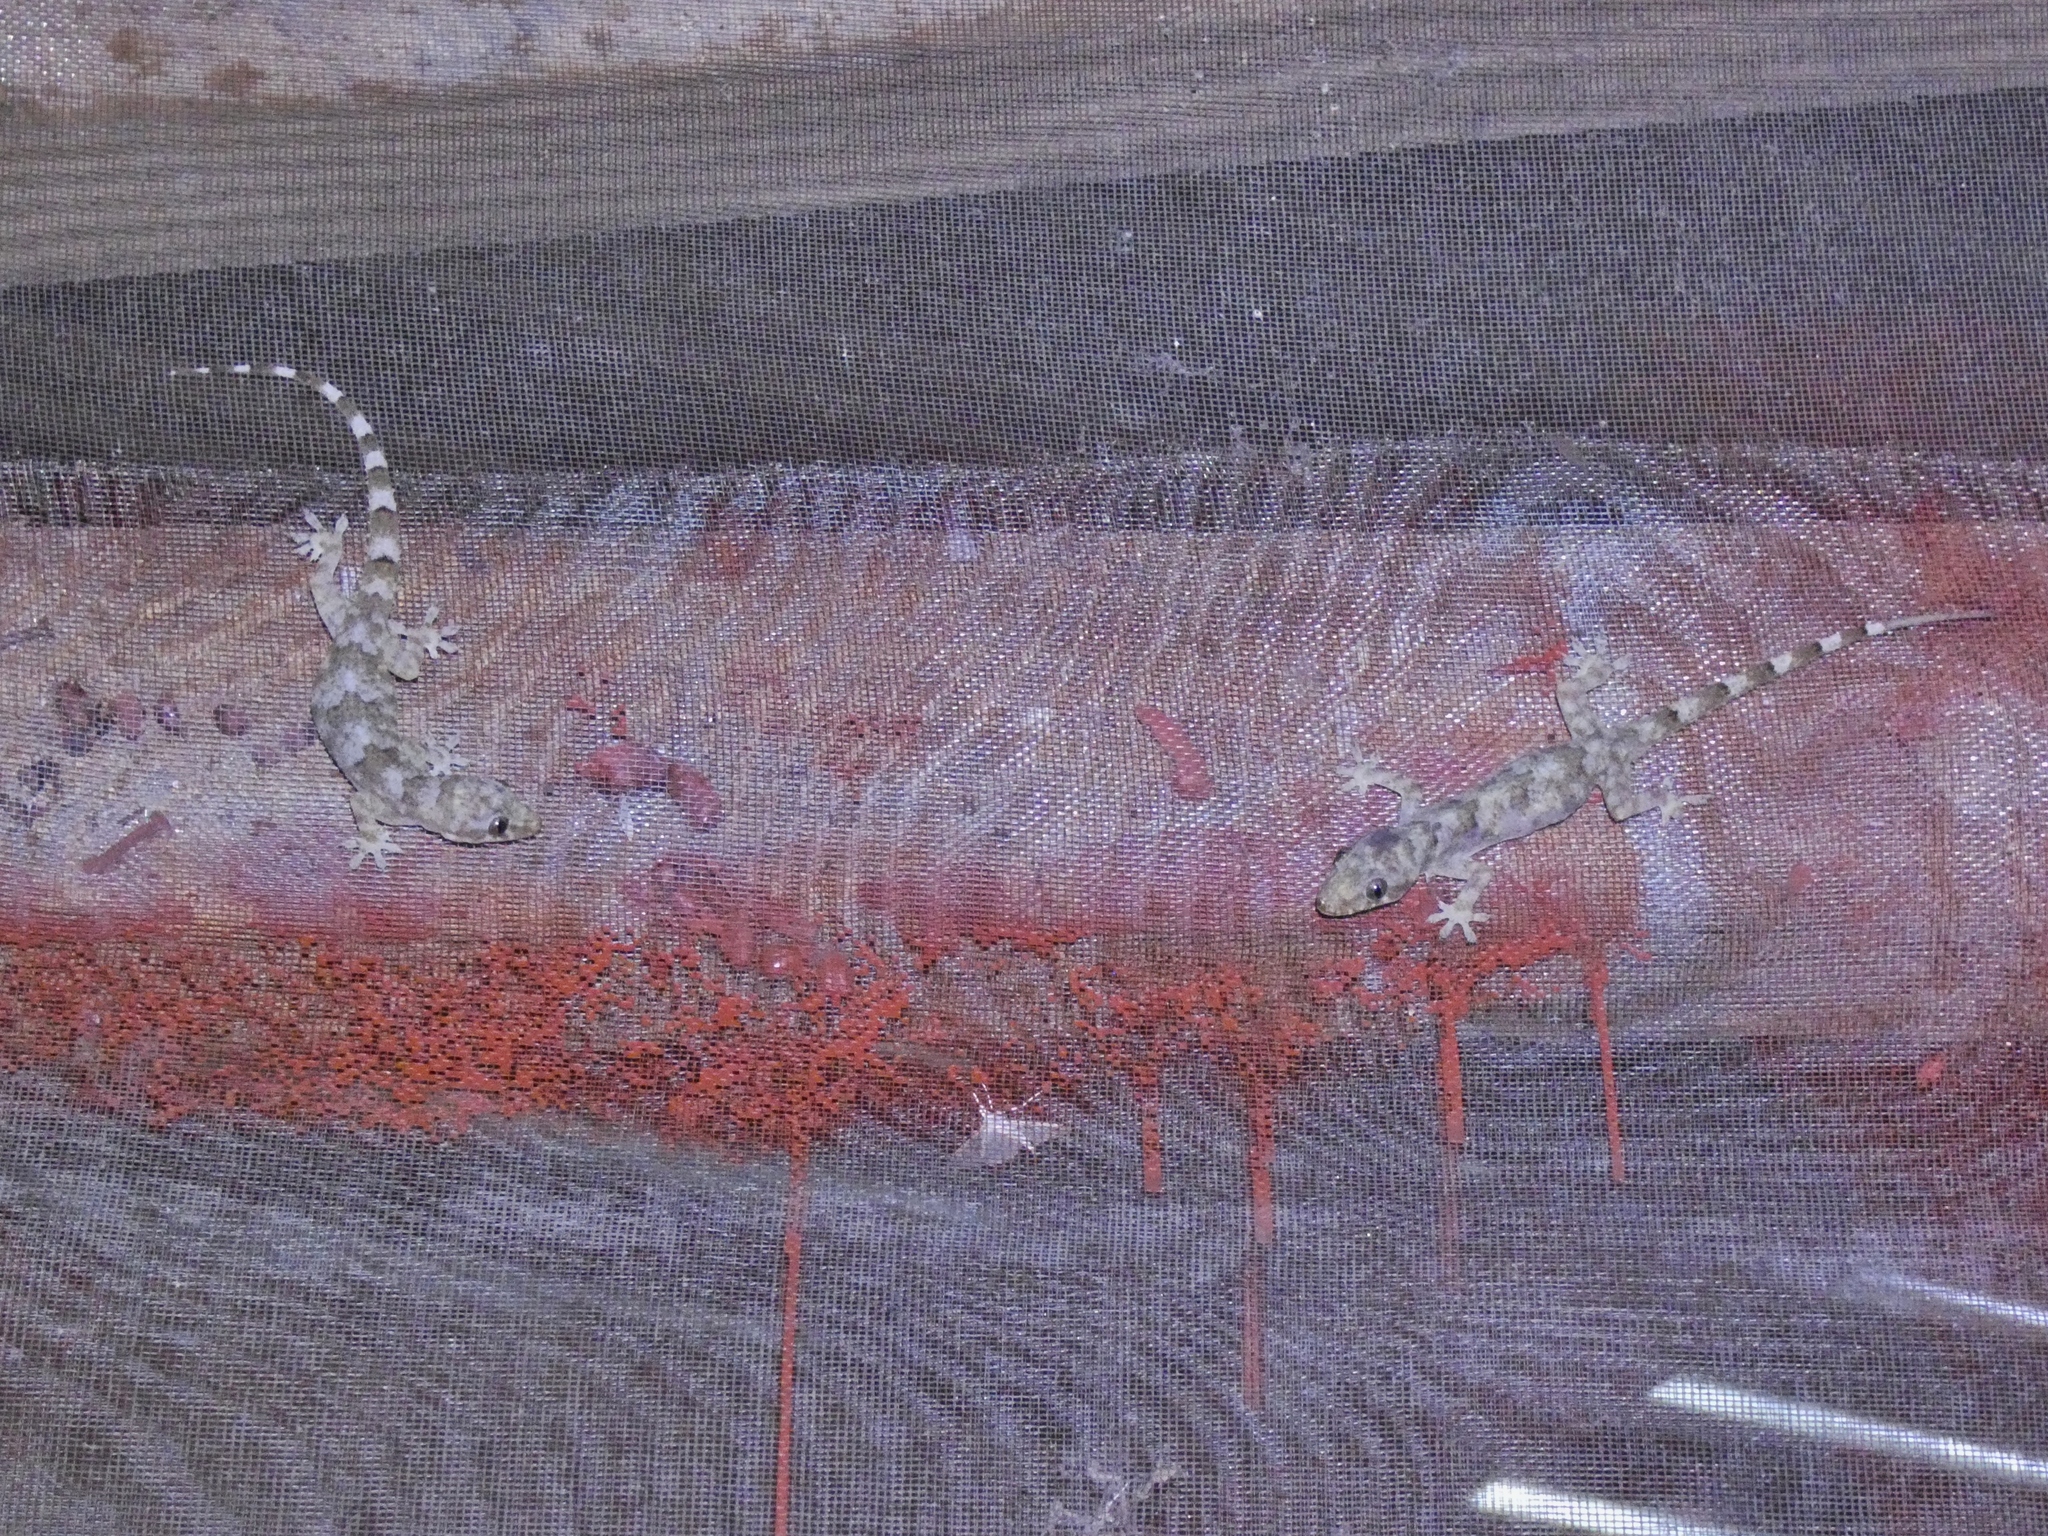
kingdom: Animalia
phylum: Chordata
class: Squamata
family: Gekkonidae
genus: Hemidactylus
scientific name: Hemidactylus mabouia
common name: House gecko
